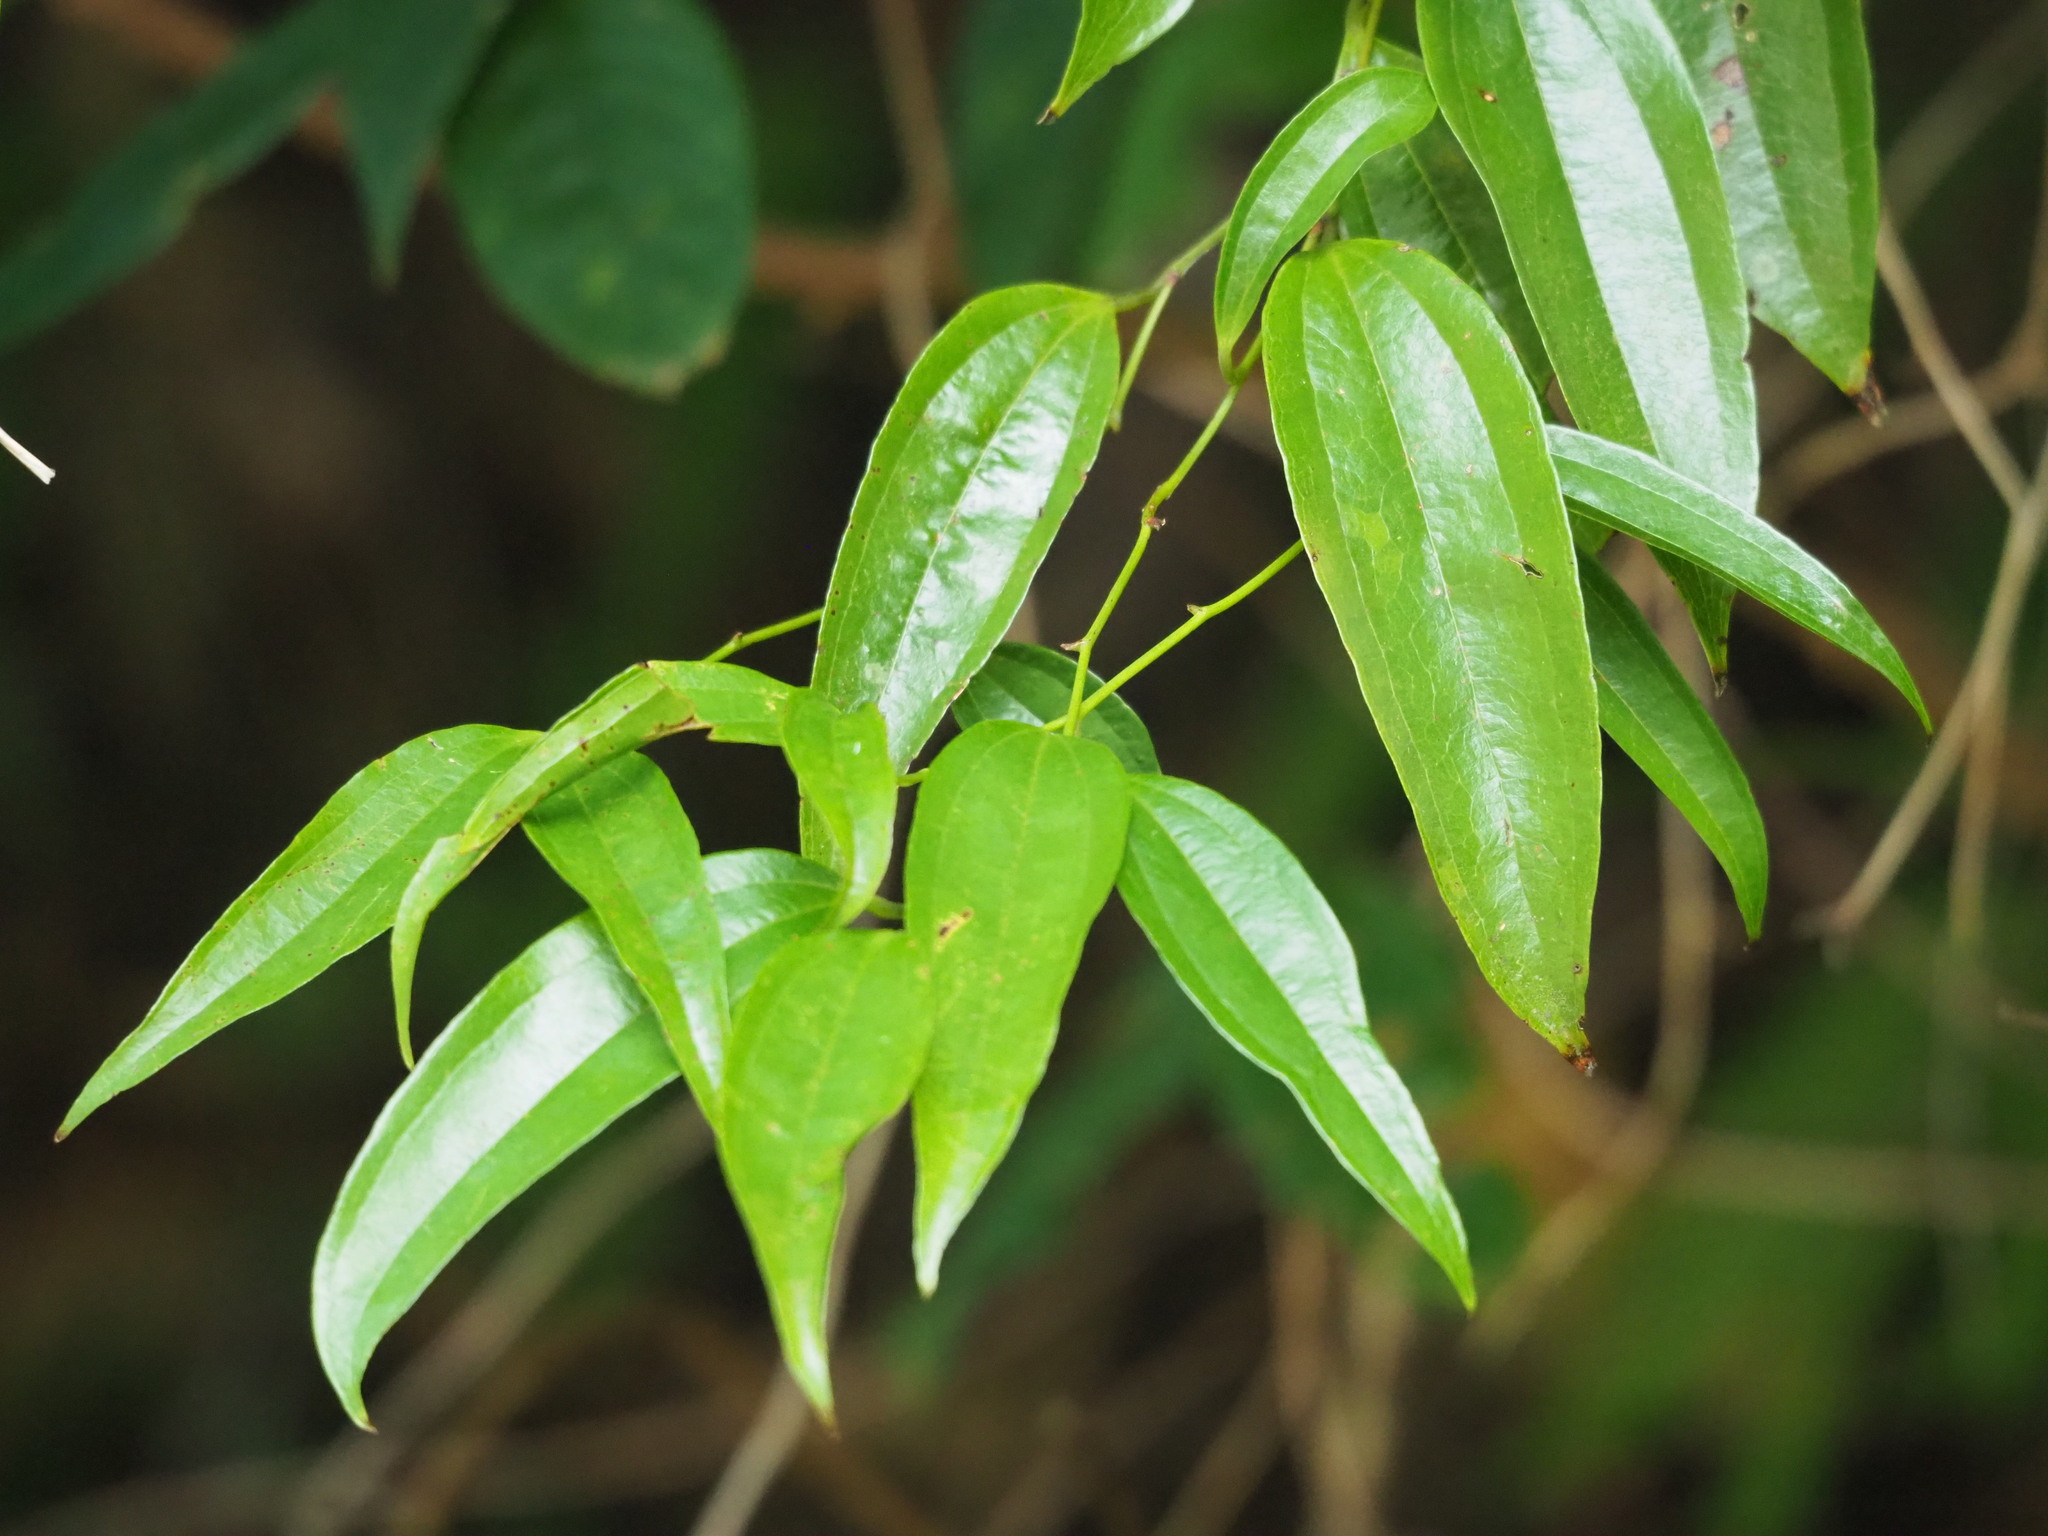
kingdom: Plantae
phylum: Tracheophyta
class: Liliopsida
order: Liliales
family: Smilacaceae
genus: Smilax
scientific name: Smilax lanceifolia
